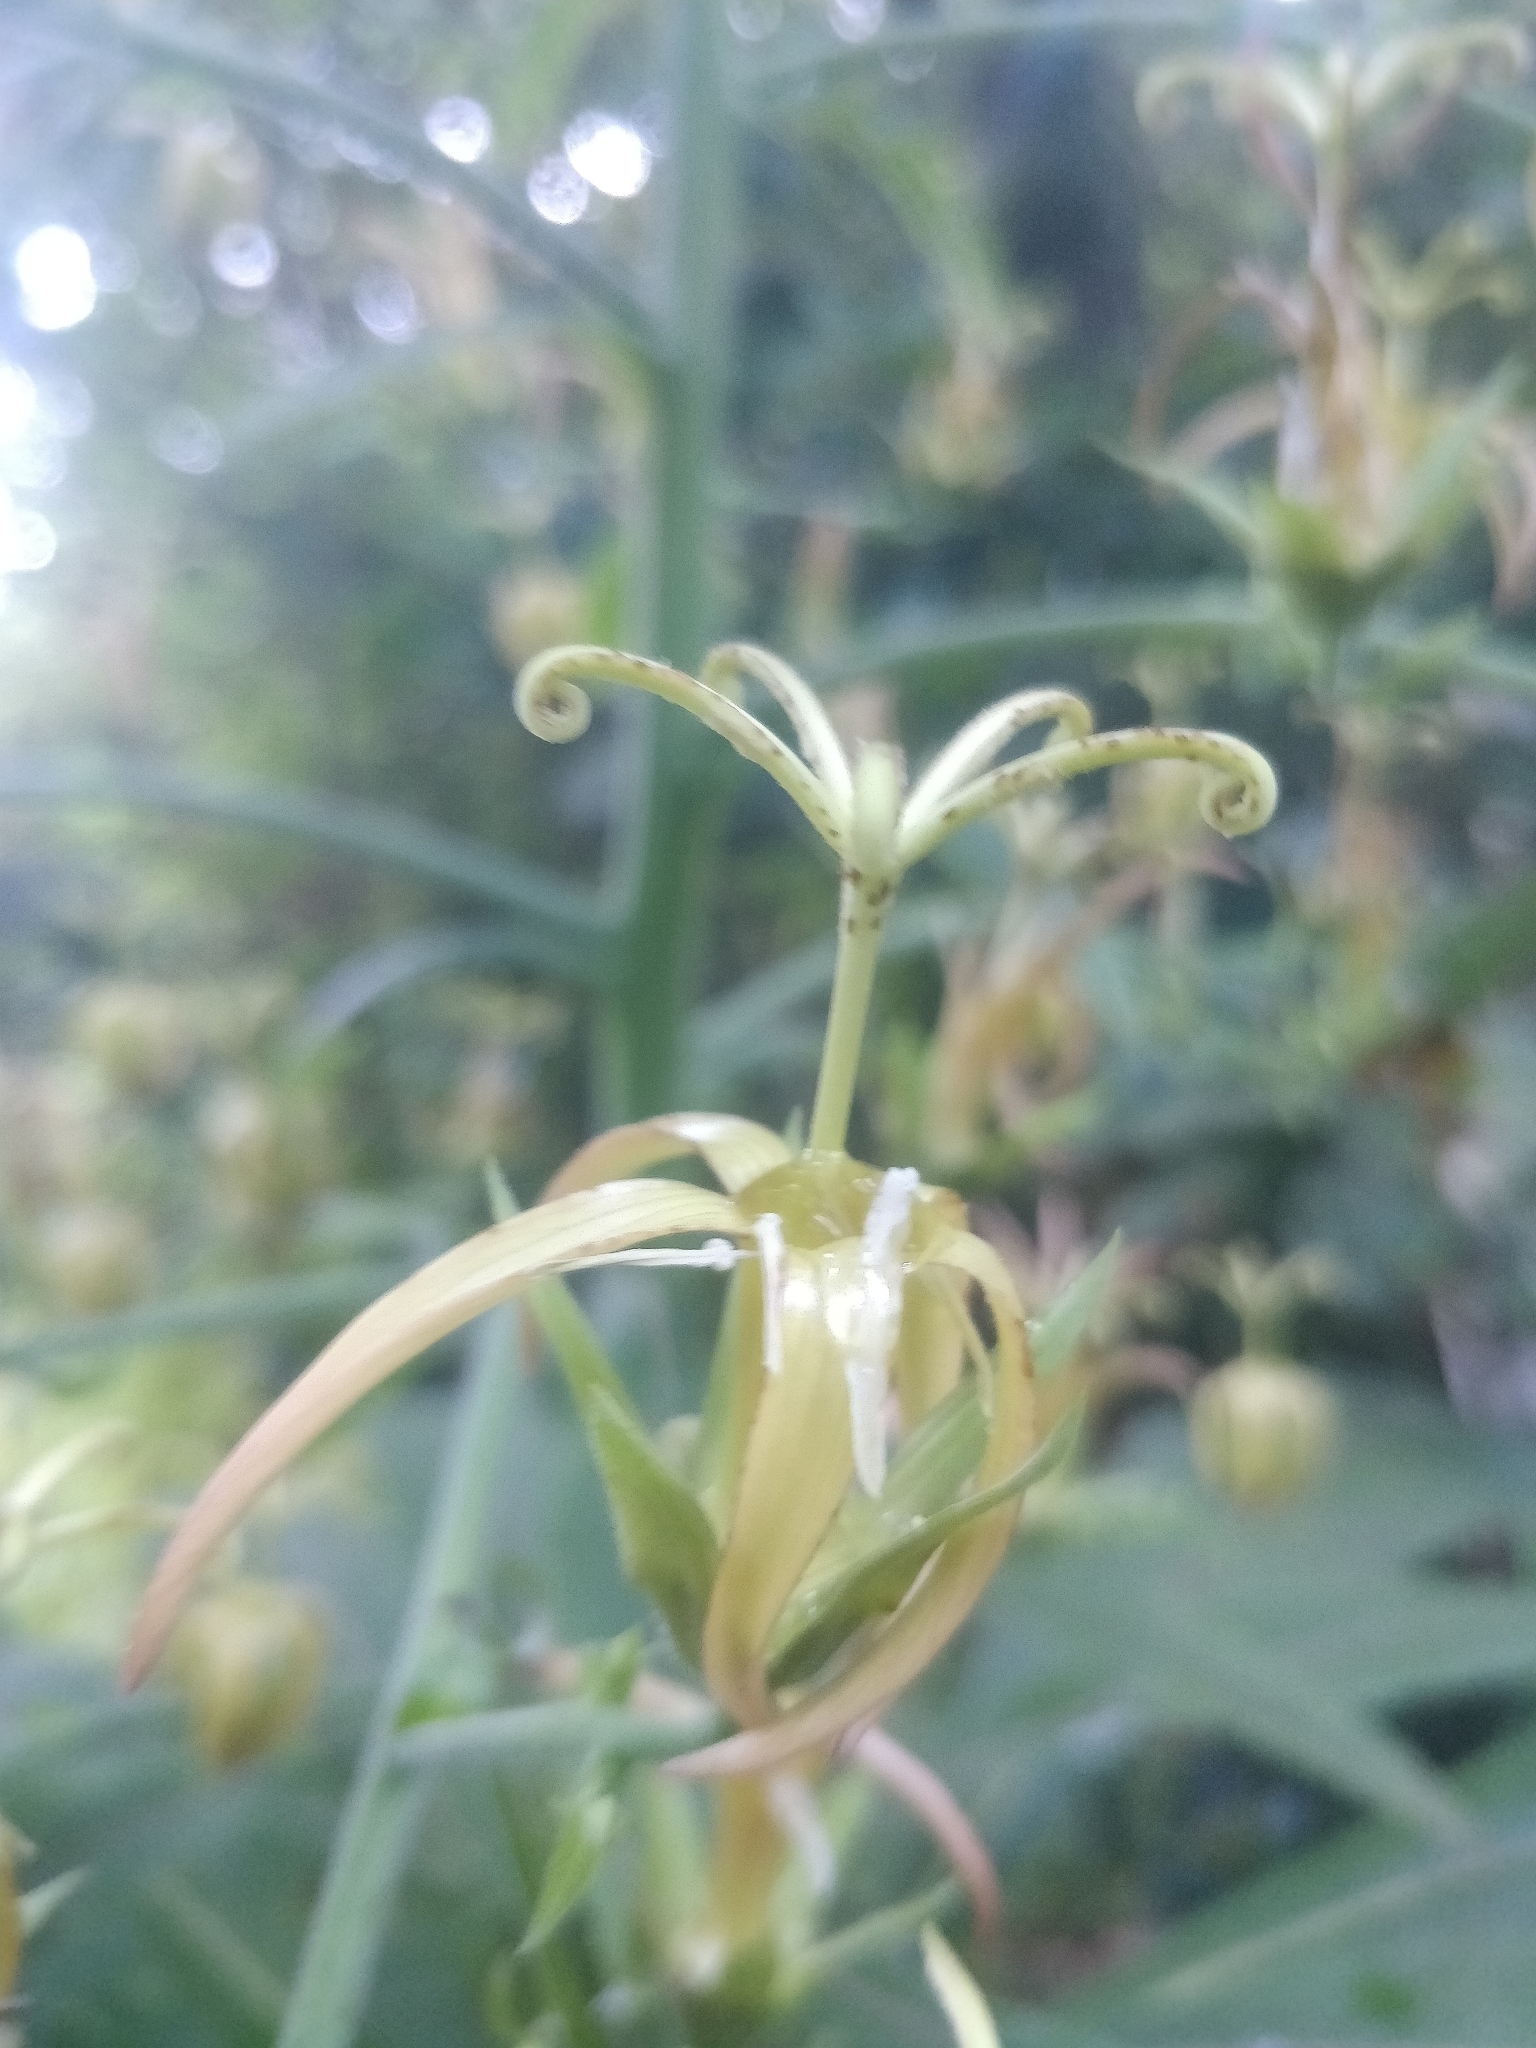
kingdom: Plantae
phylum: Tracheophyta
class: Magnoliopsida
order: Asterales
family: Campanulaceae
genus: Musschia
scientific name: Musschia wollastonii
